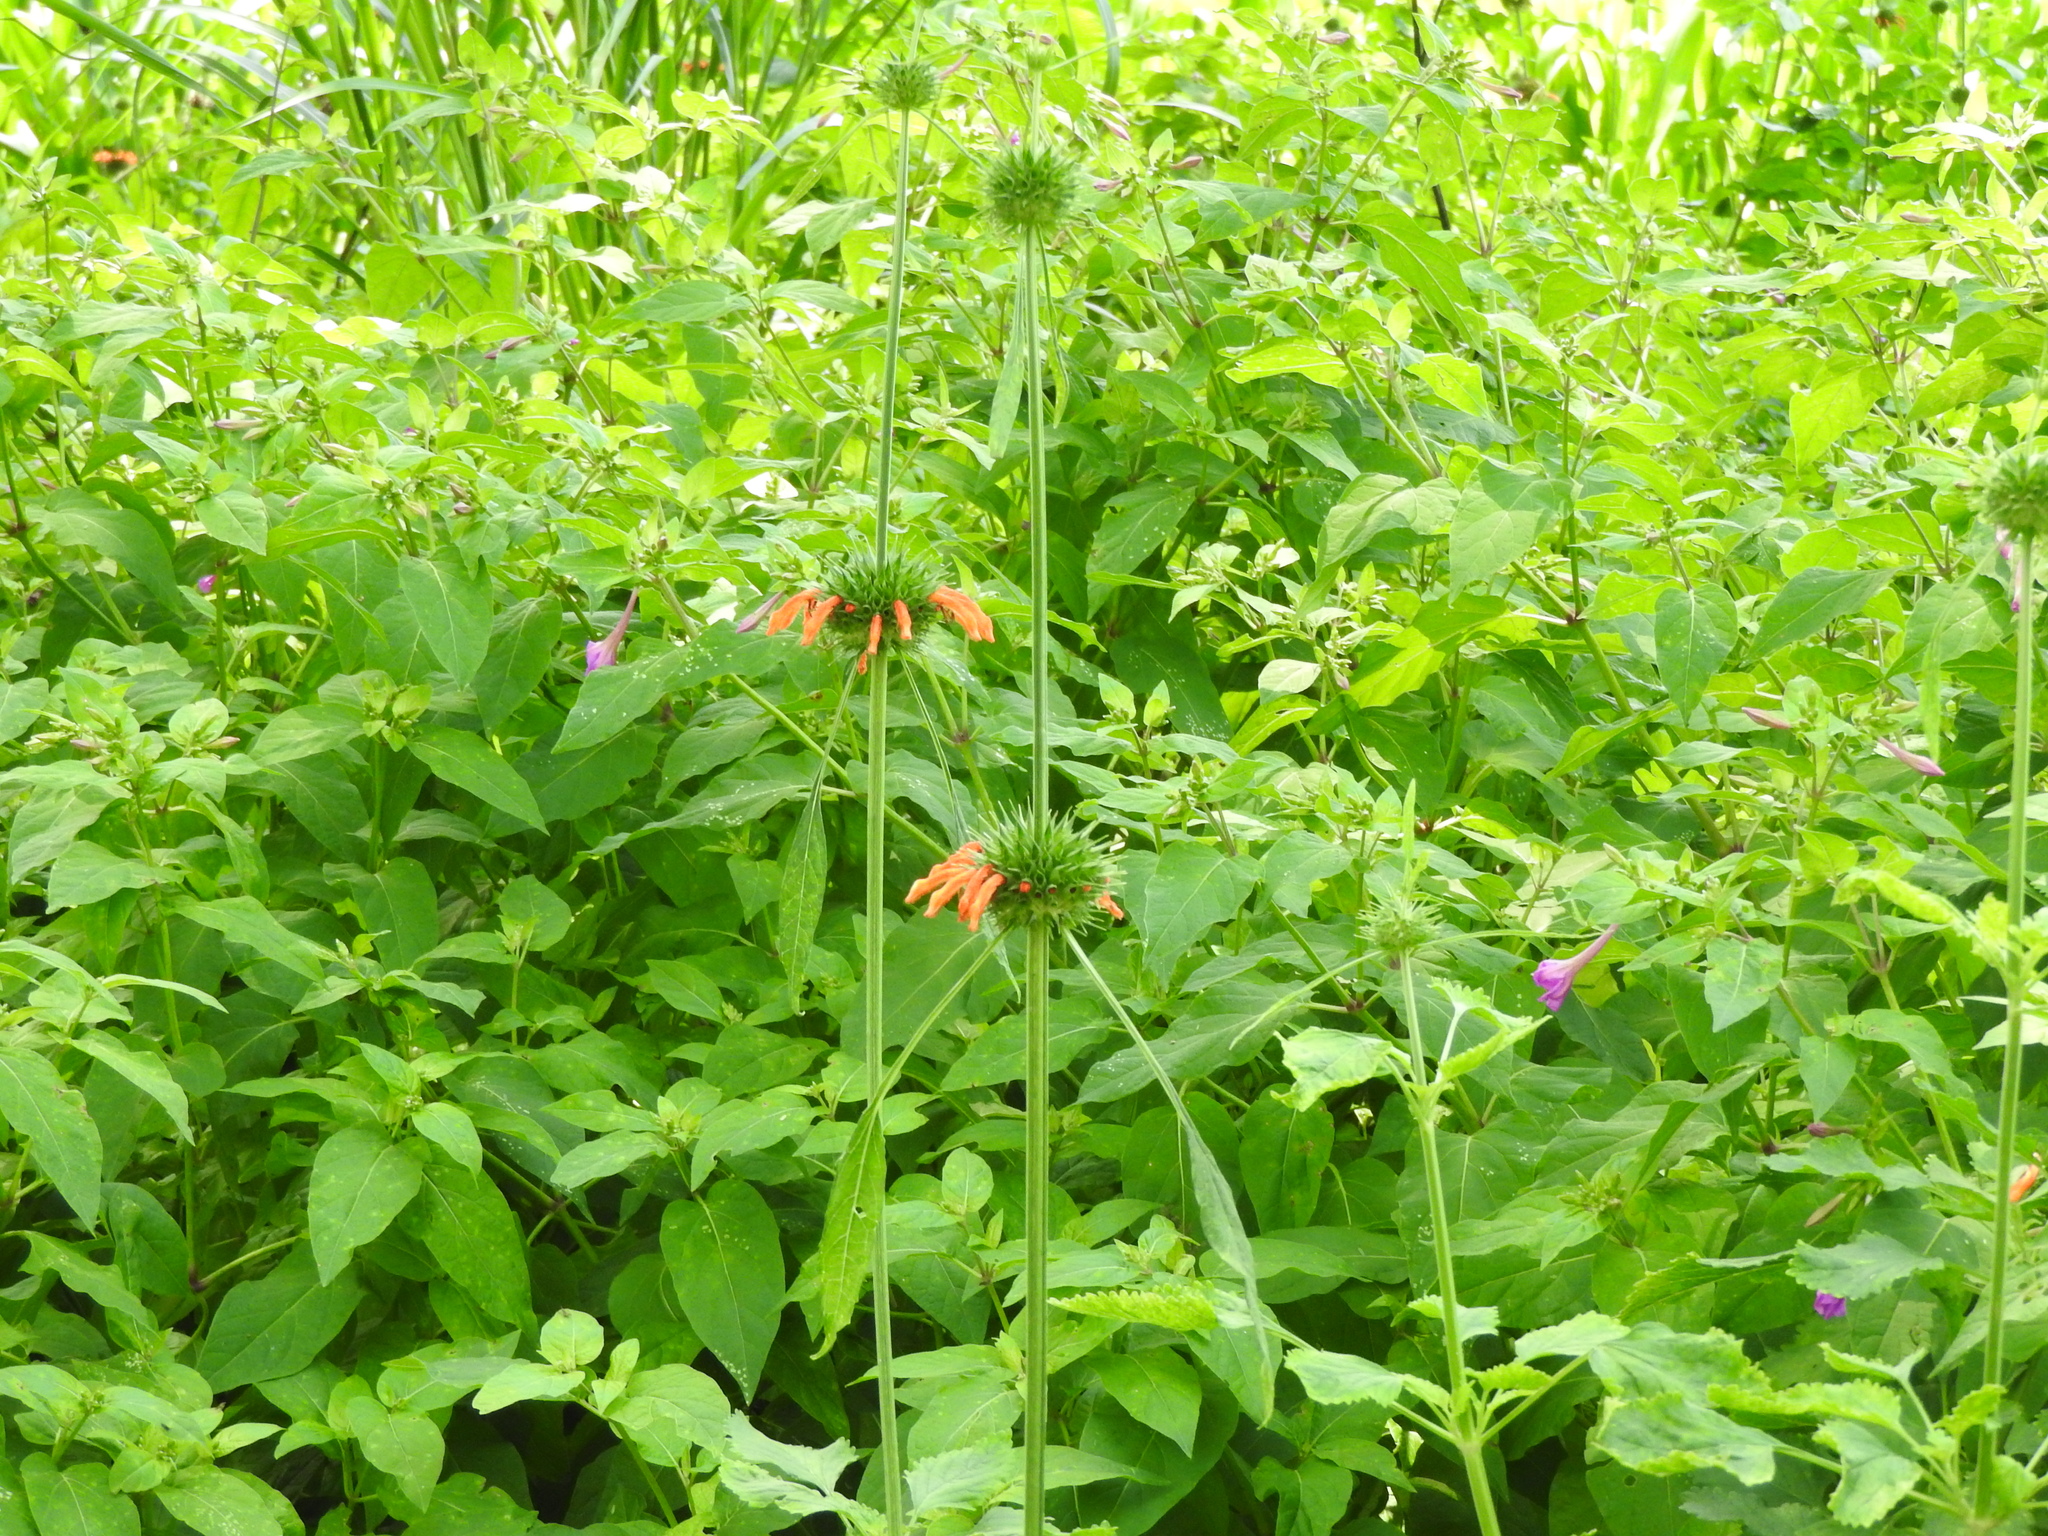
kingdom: Plantae
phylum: Tracheophyta
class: Magnoliopsida
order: Lamiales
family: Lamiaceae
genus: Leonotis
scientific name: Leonotis nepetifolia
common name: Christmas candlestick
